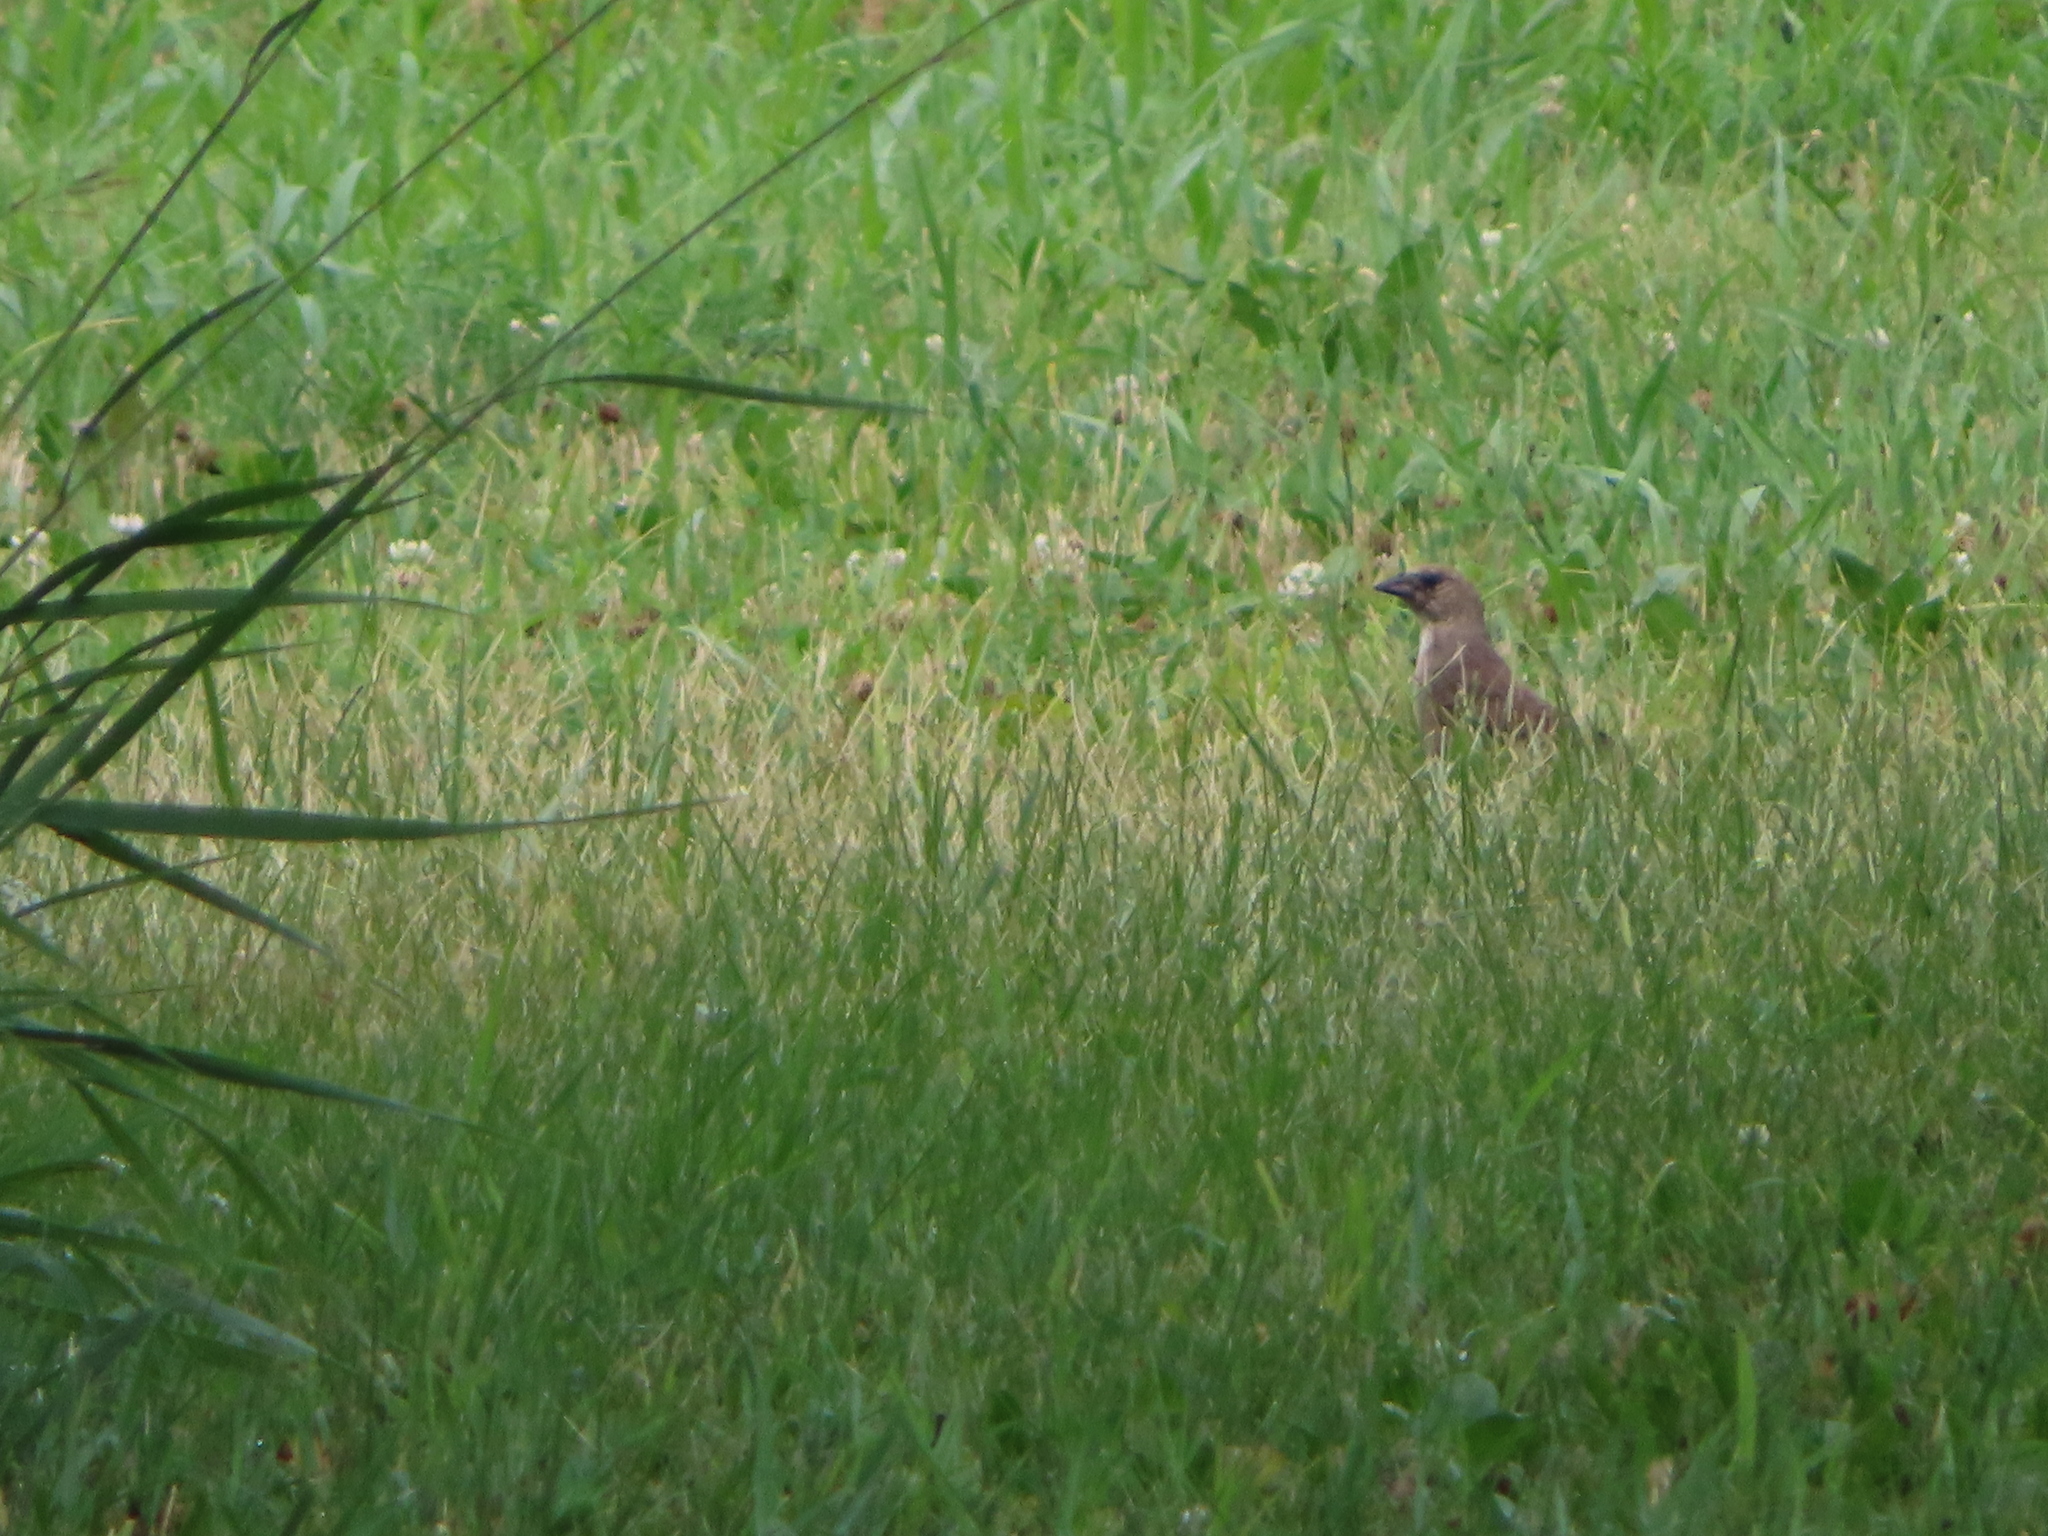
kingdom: Animalia
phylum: Chordata
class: Aves
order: Passeriformes
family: Icteridae
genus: Molothrus
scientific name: Molothrus ater
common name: Brown-headed cowbird
